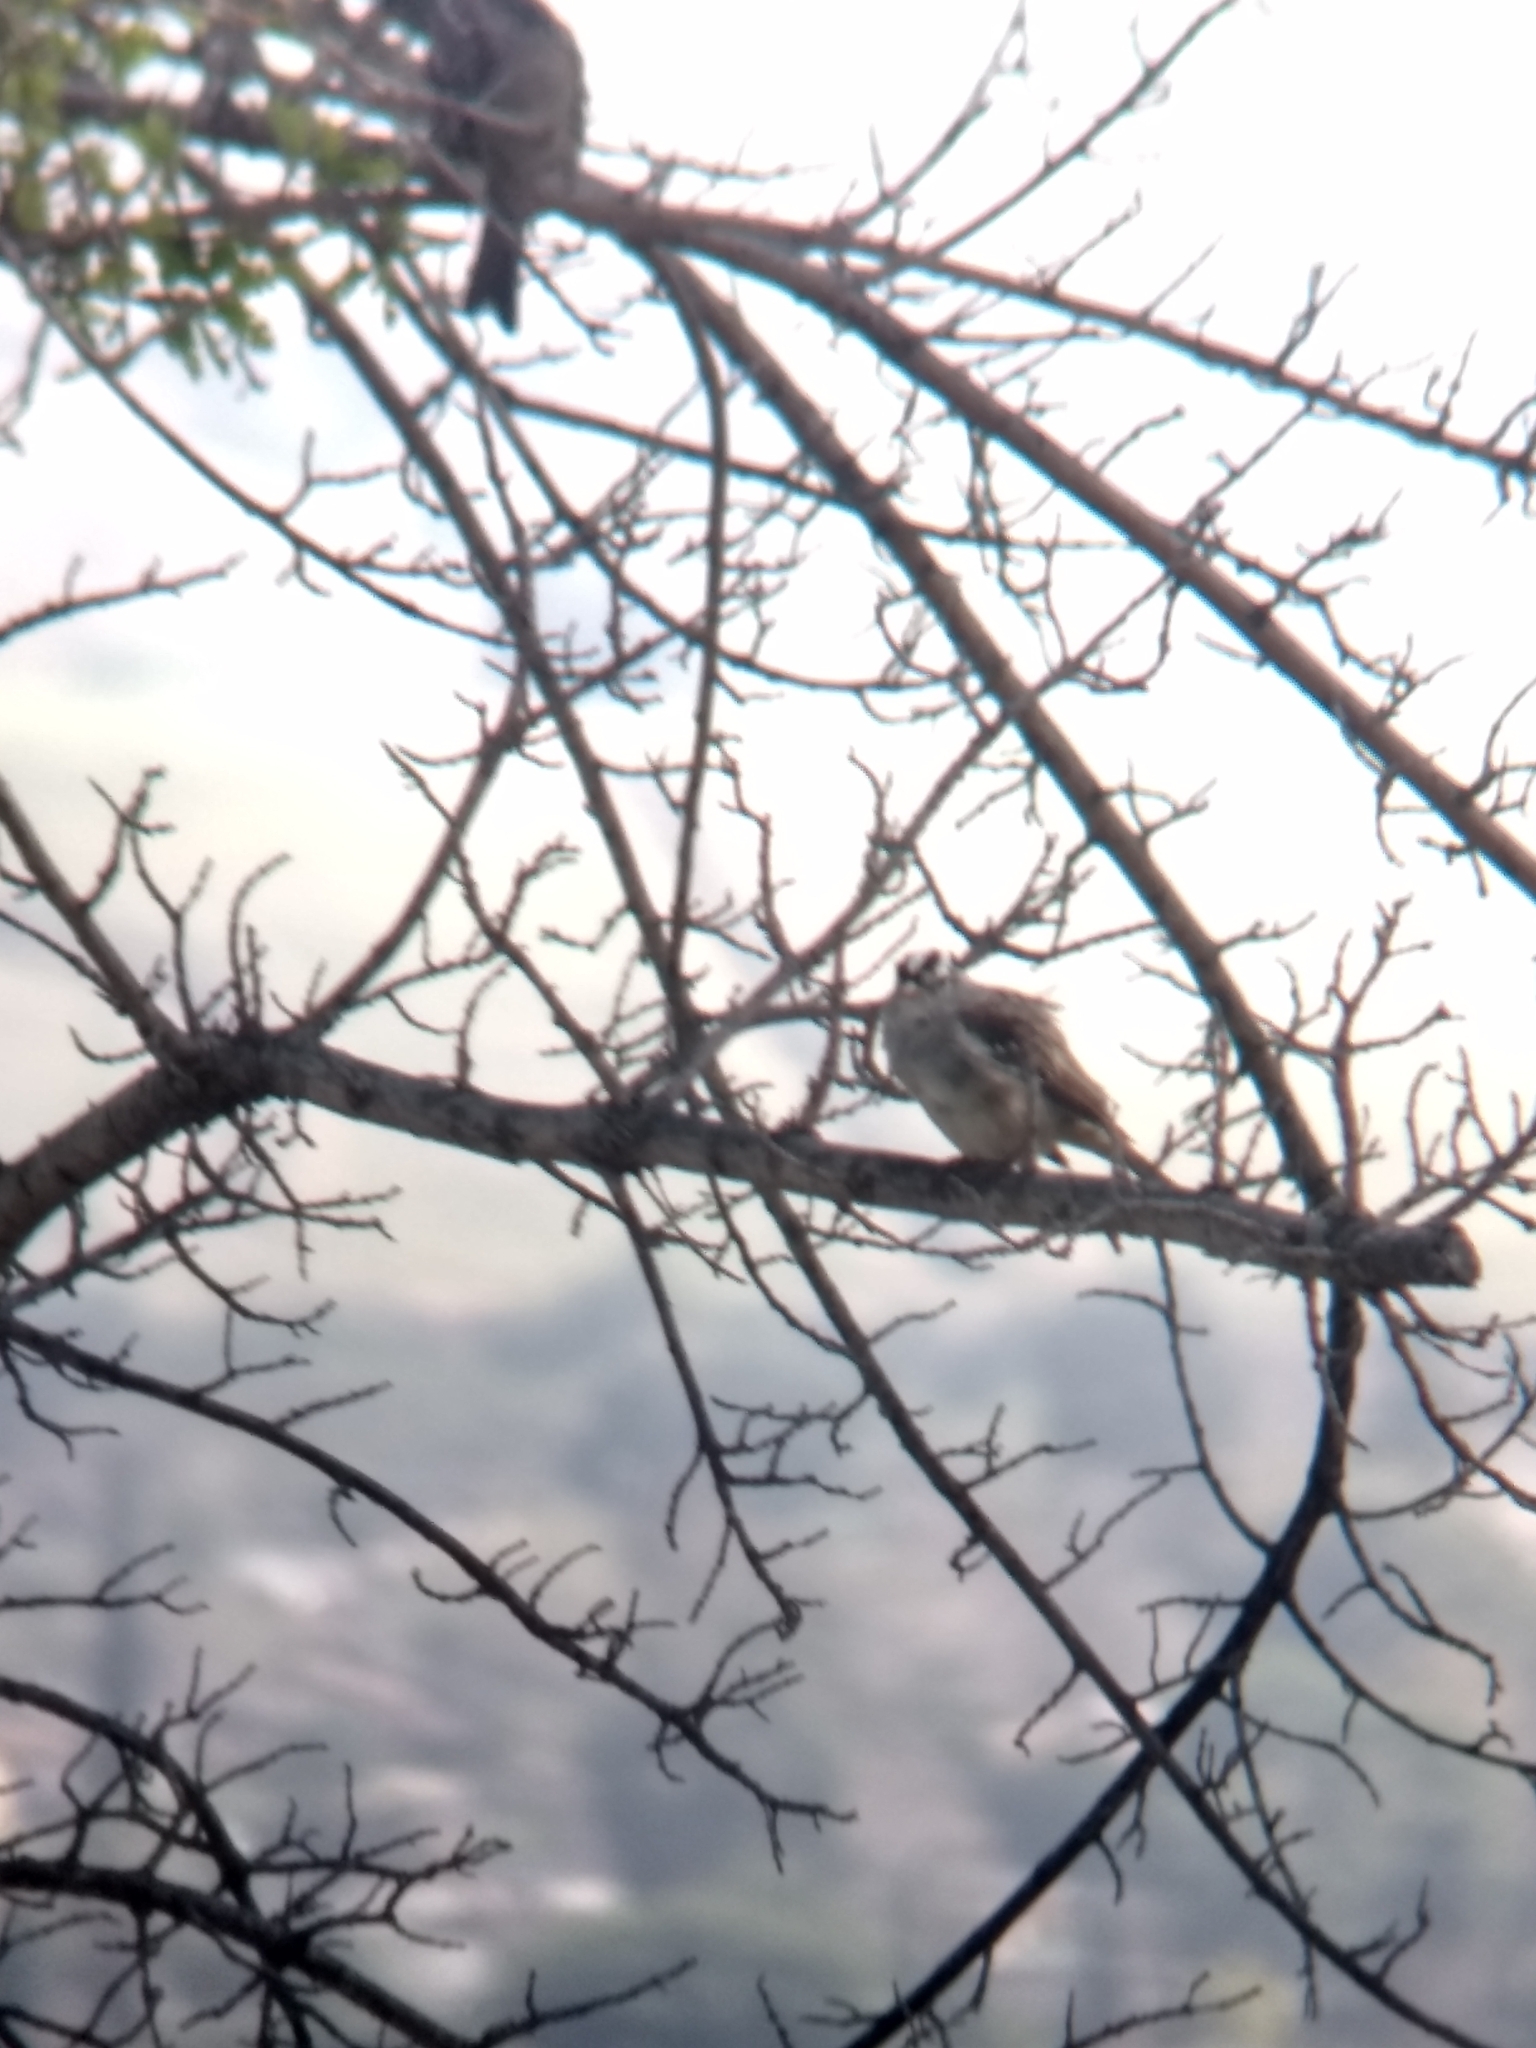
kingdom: Animalia
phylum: Chordata
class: Aves
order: Passeriformes
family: Passerellidae
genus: Zonotrichia
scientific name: Zonotrichia leucophrys
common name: White-crowned sparrow
